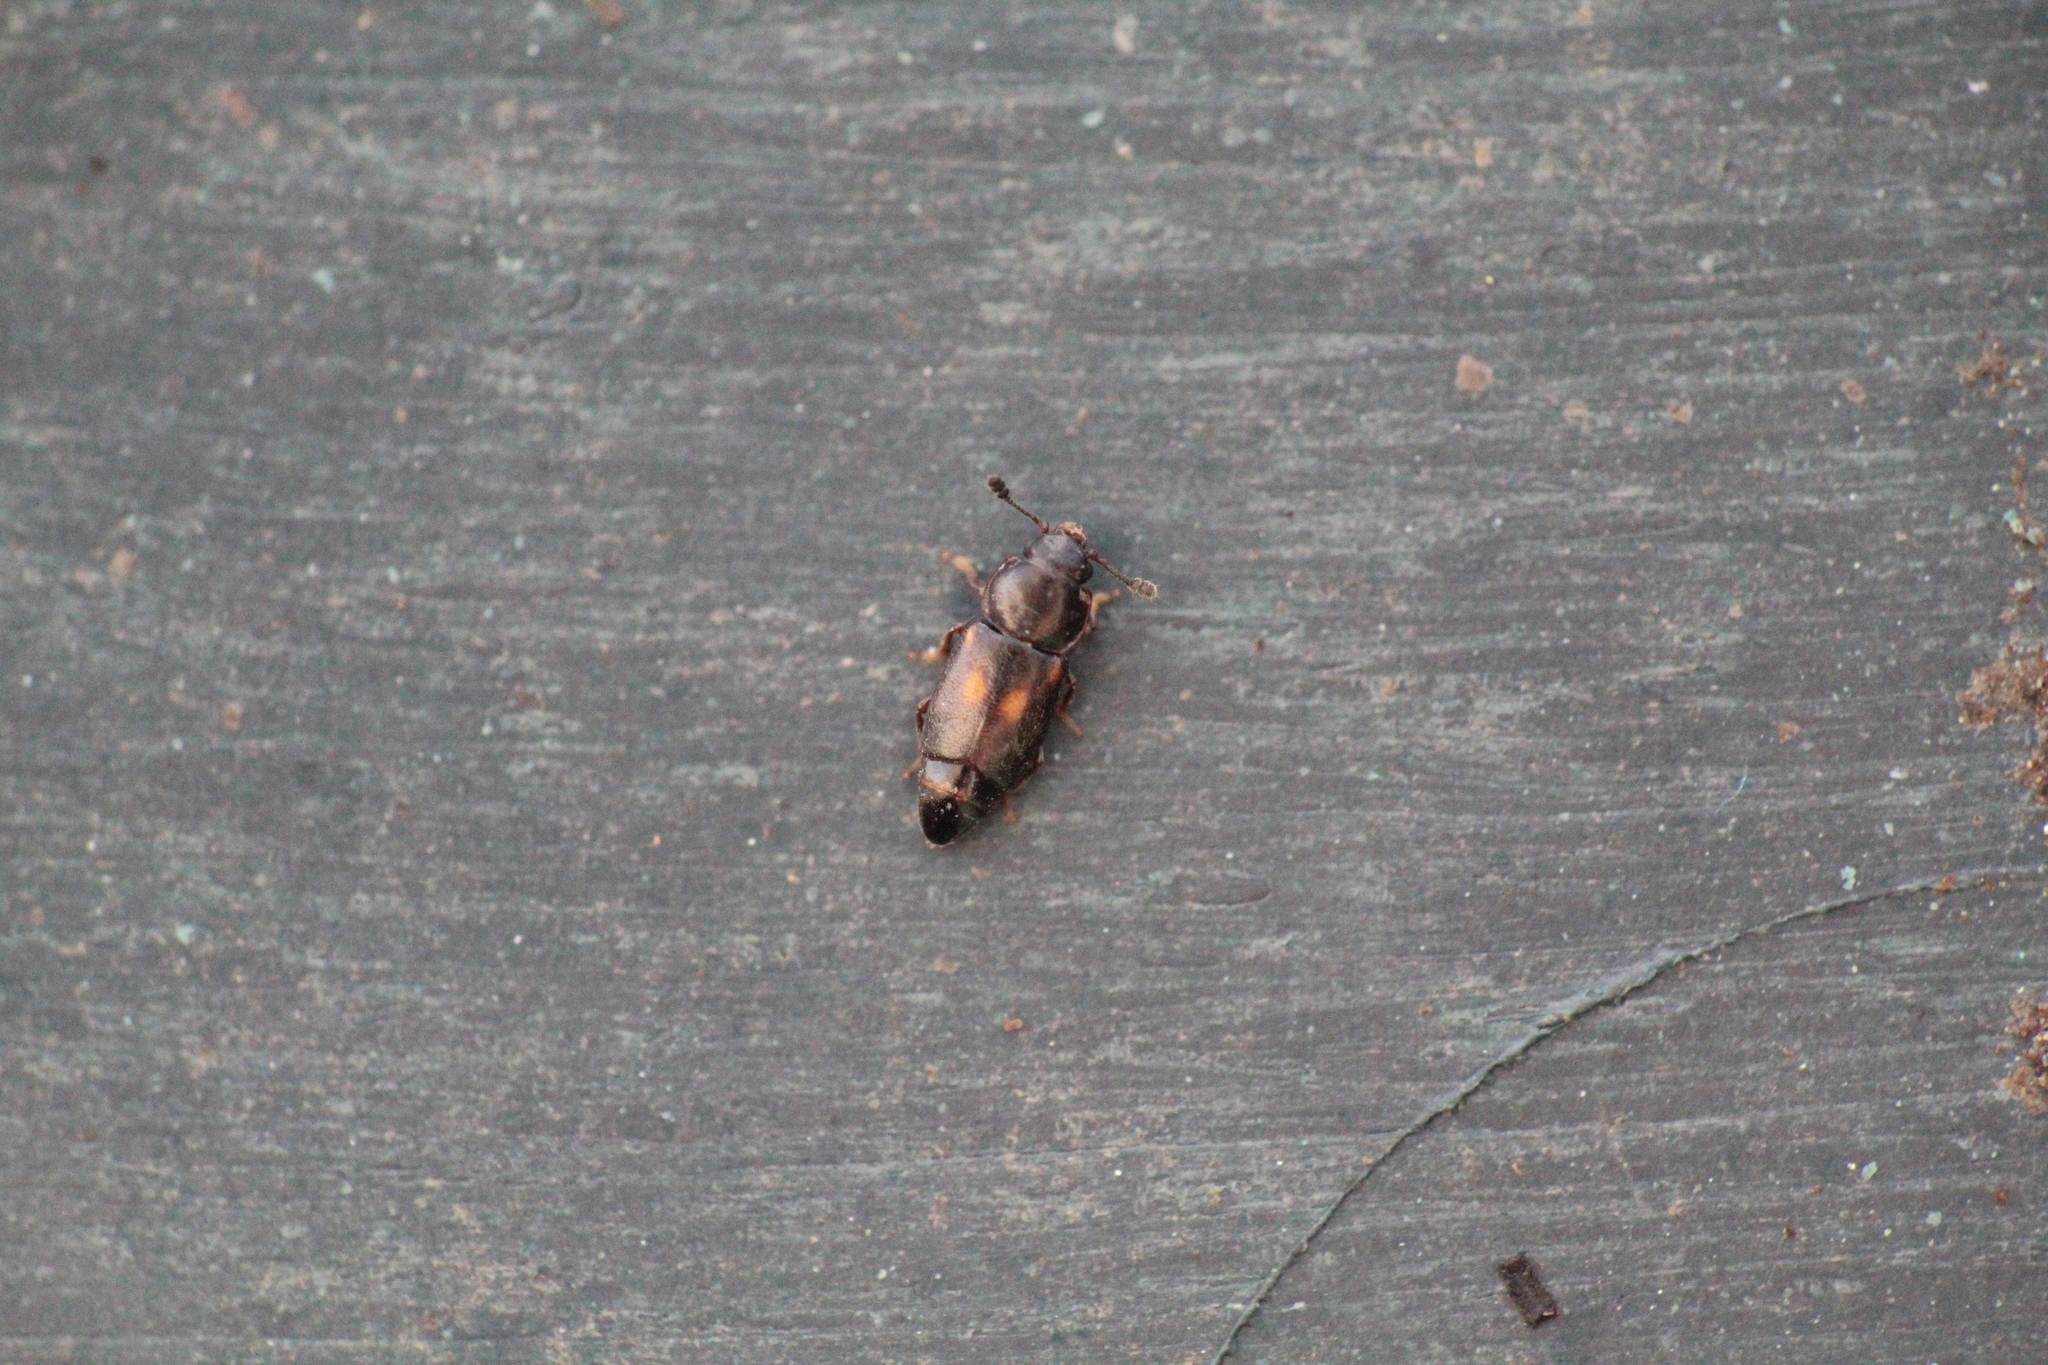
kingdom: Animalia
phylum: Arthropoda
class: Insecta
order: Coleoptera
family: Nitidulidae
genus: Carpophilus
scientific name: Carpophilus sexpustulatus
